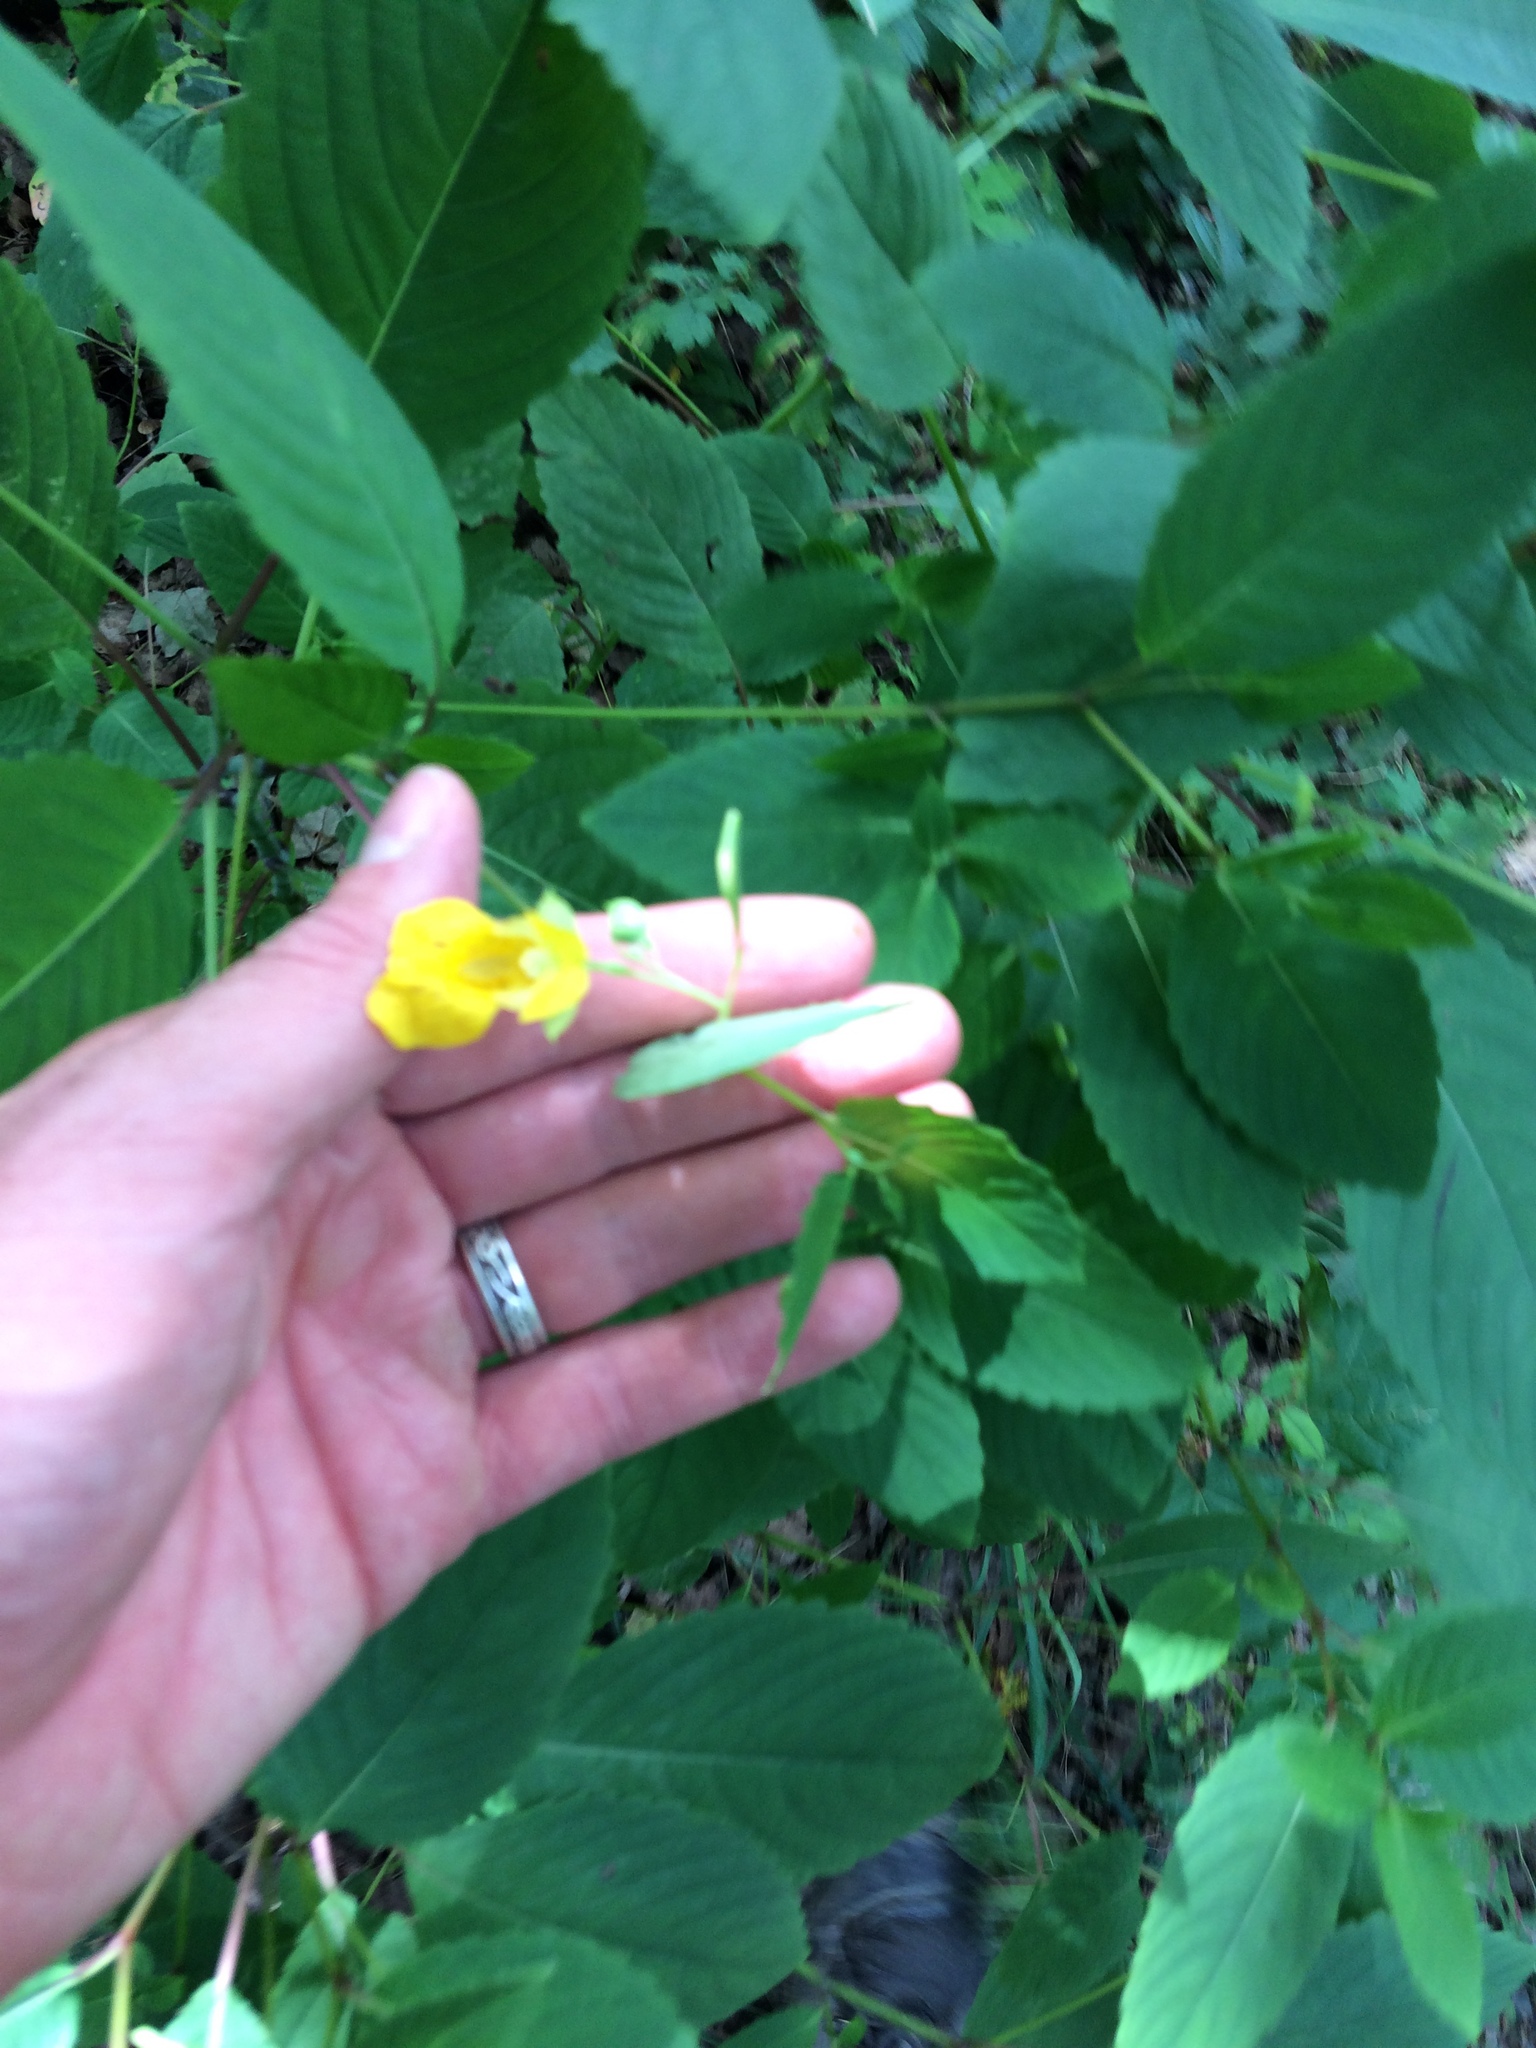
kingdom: Plantae
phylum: Tracheophyta
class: Magnoliopsida
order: Ericales
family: Balsaminaceae
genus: Impatiens
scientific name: Impatiens pallida
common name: Pale snapweed
